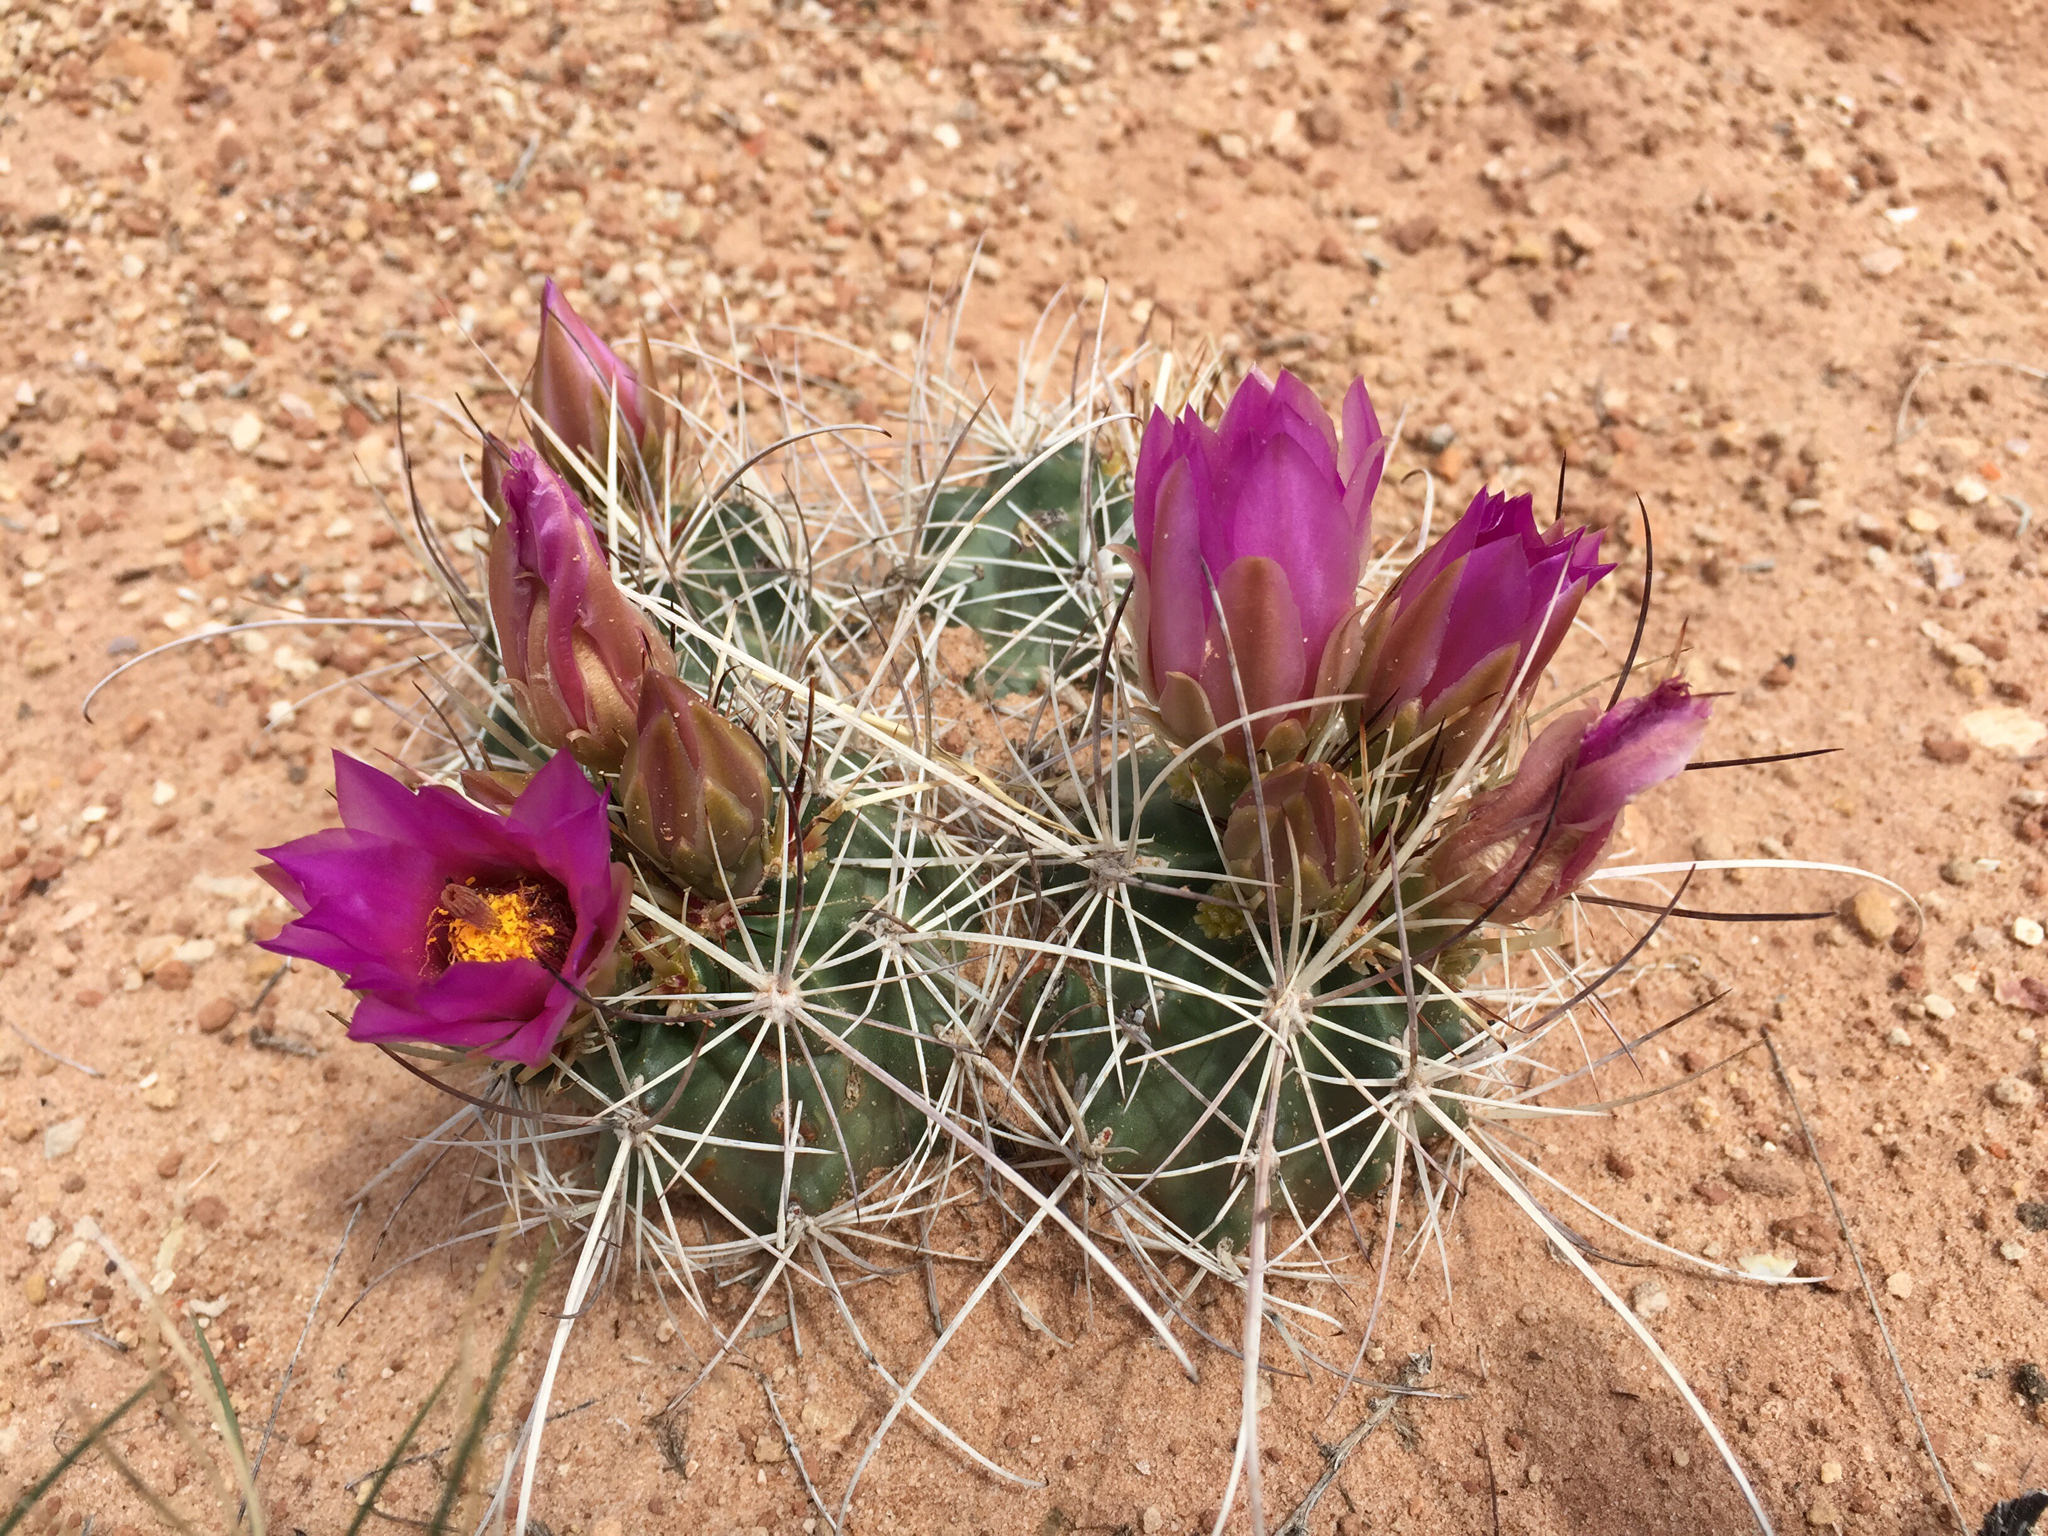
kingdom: Plantae
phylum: Tracheophyta
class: Magnoliopsida
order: Caryophyllales
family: Cactaceae
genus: Sclerocactus
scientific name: Sclerocactus parviflorus
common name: Small-flower fishhook cactus
